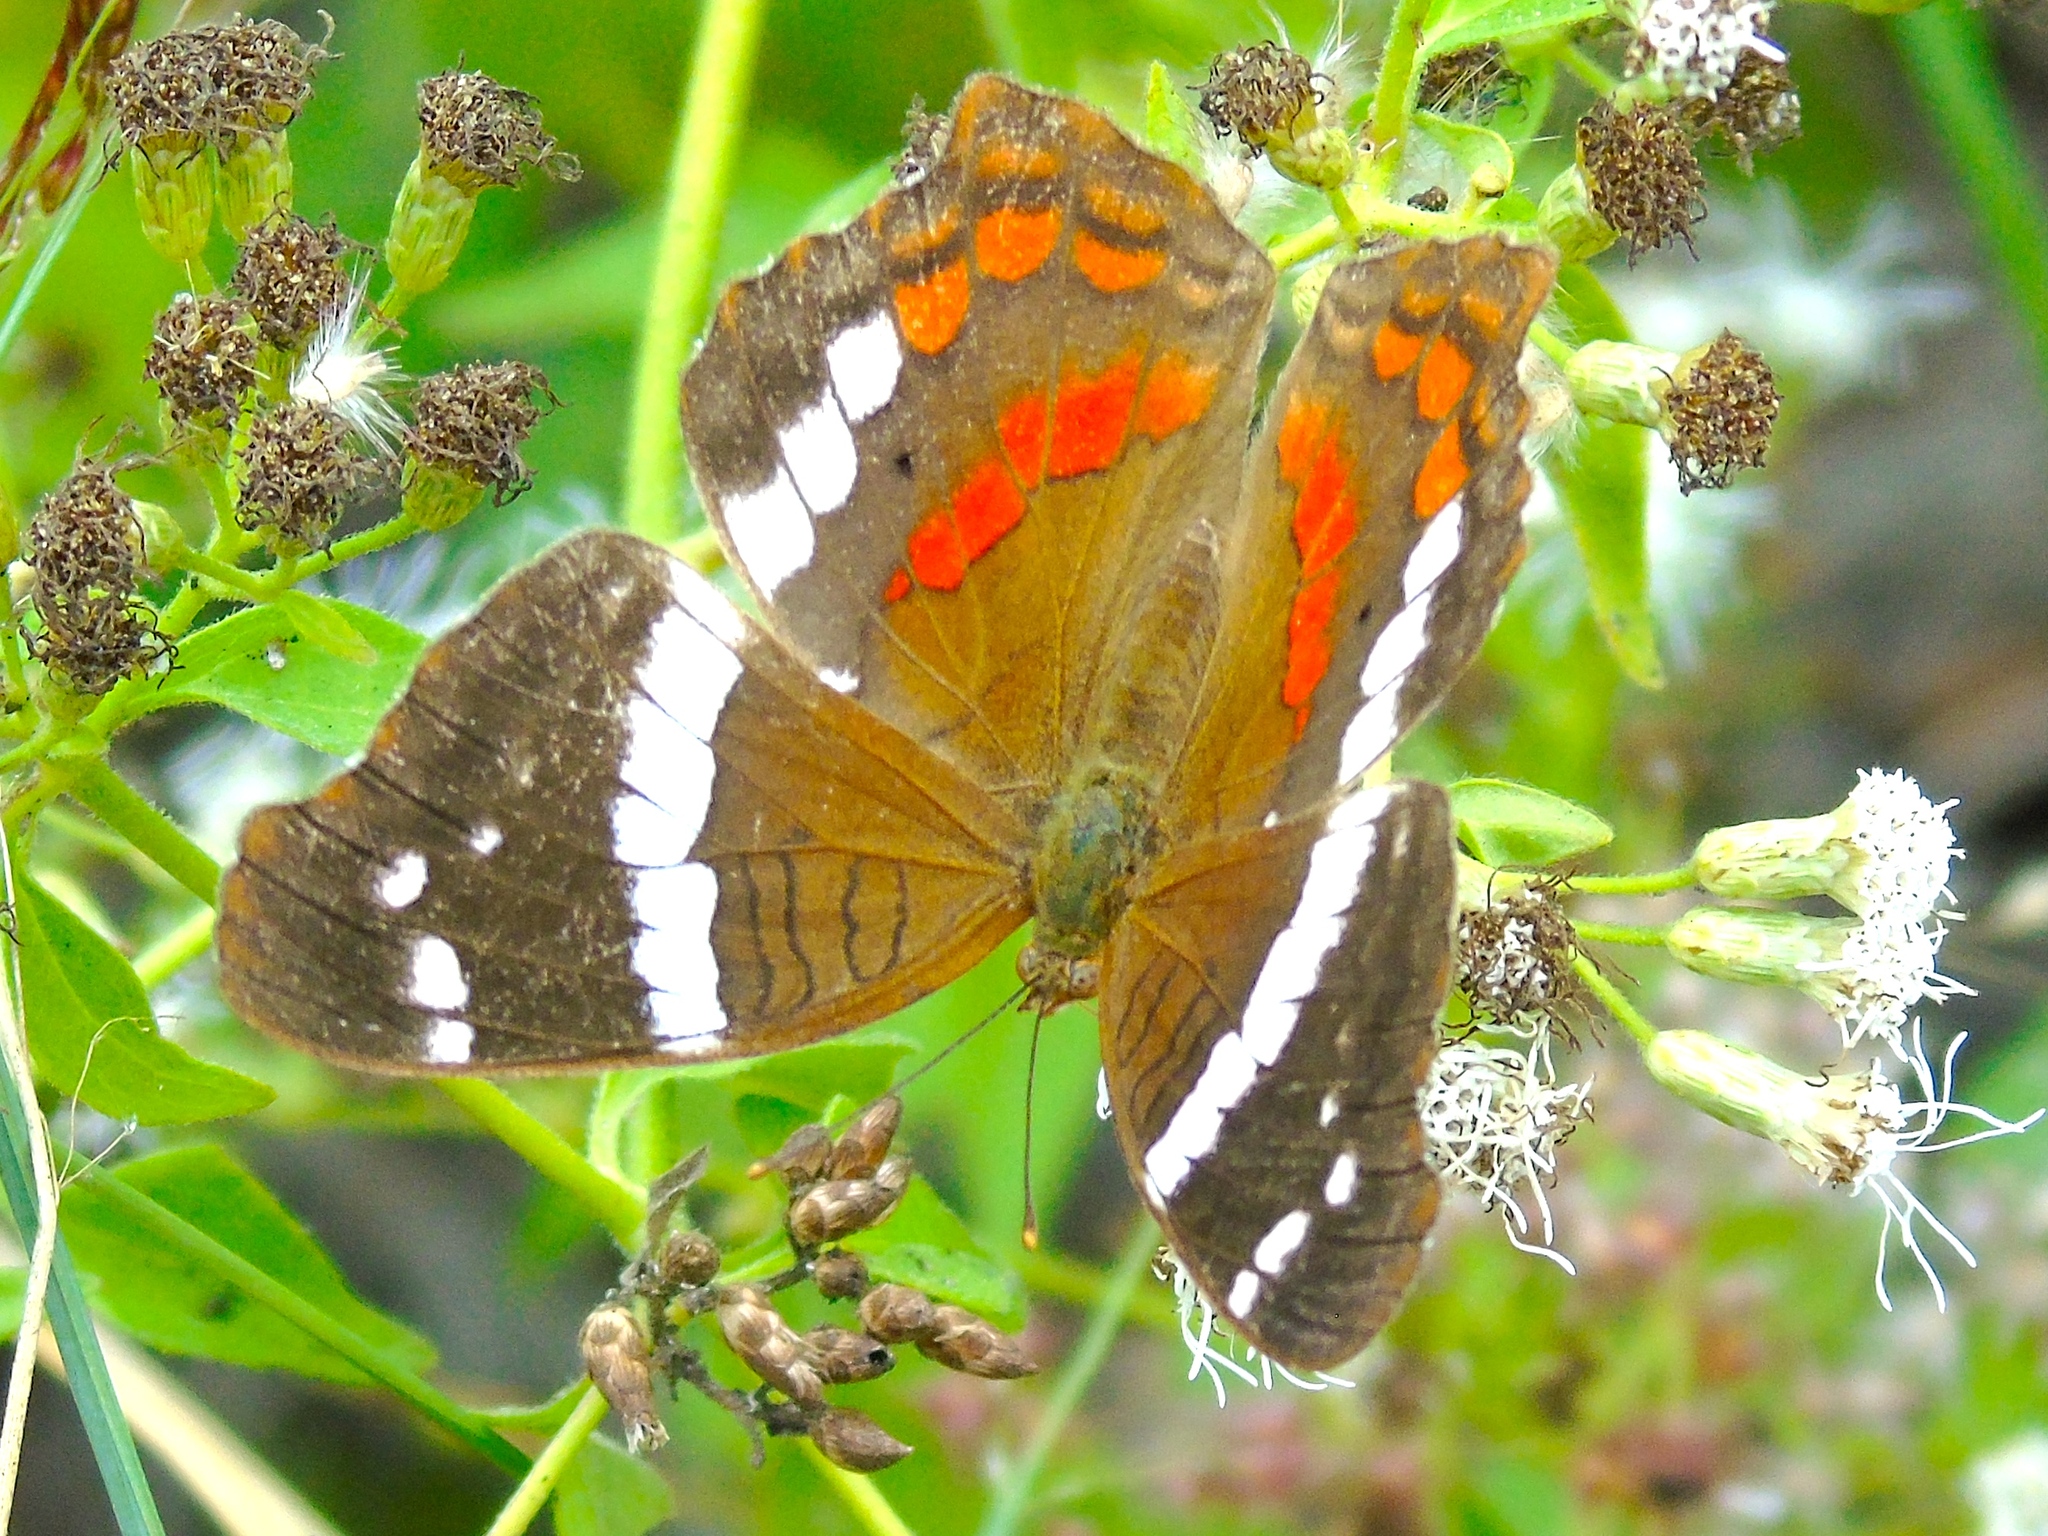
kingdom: Animalia
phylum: Arthropoda
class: Insecta
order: Lepidoptera
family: Nymphalidae
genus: Anartia
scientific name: Anartia fatima
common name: Banded peacock
